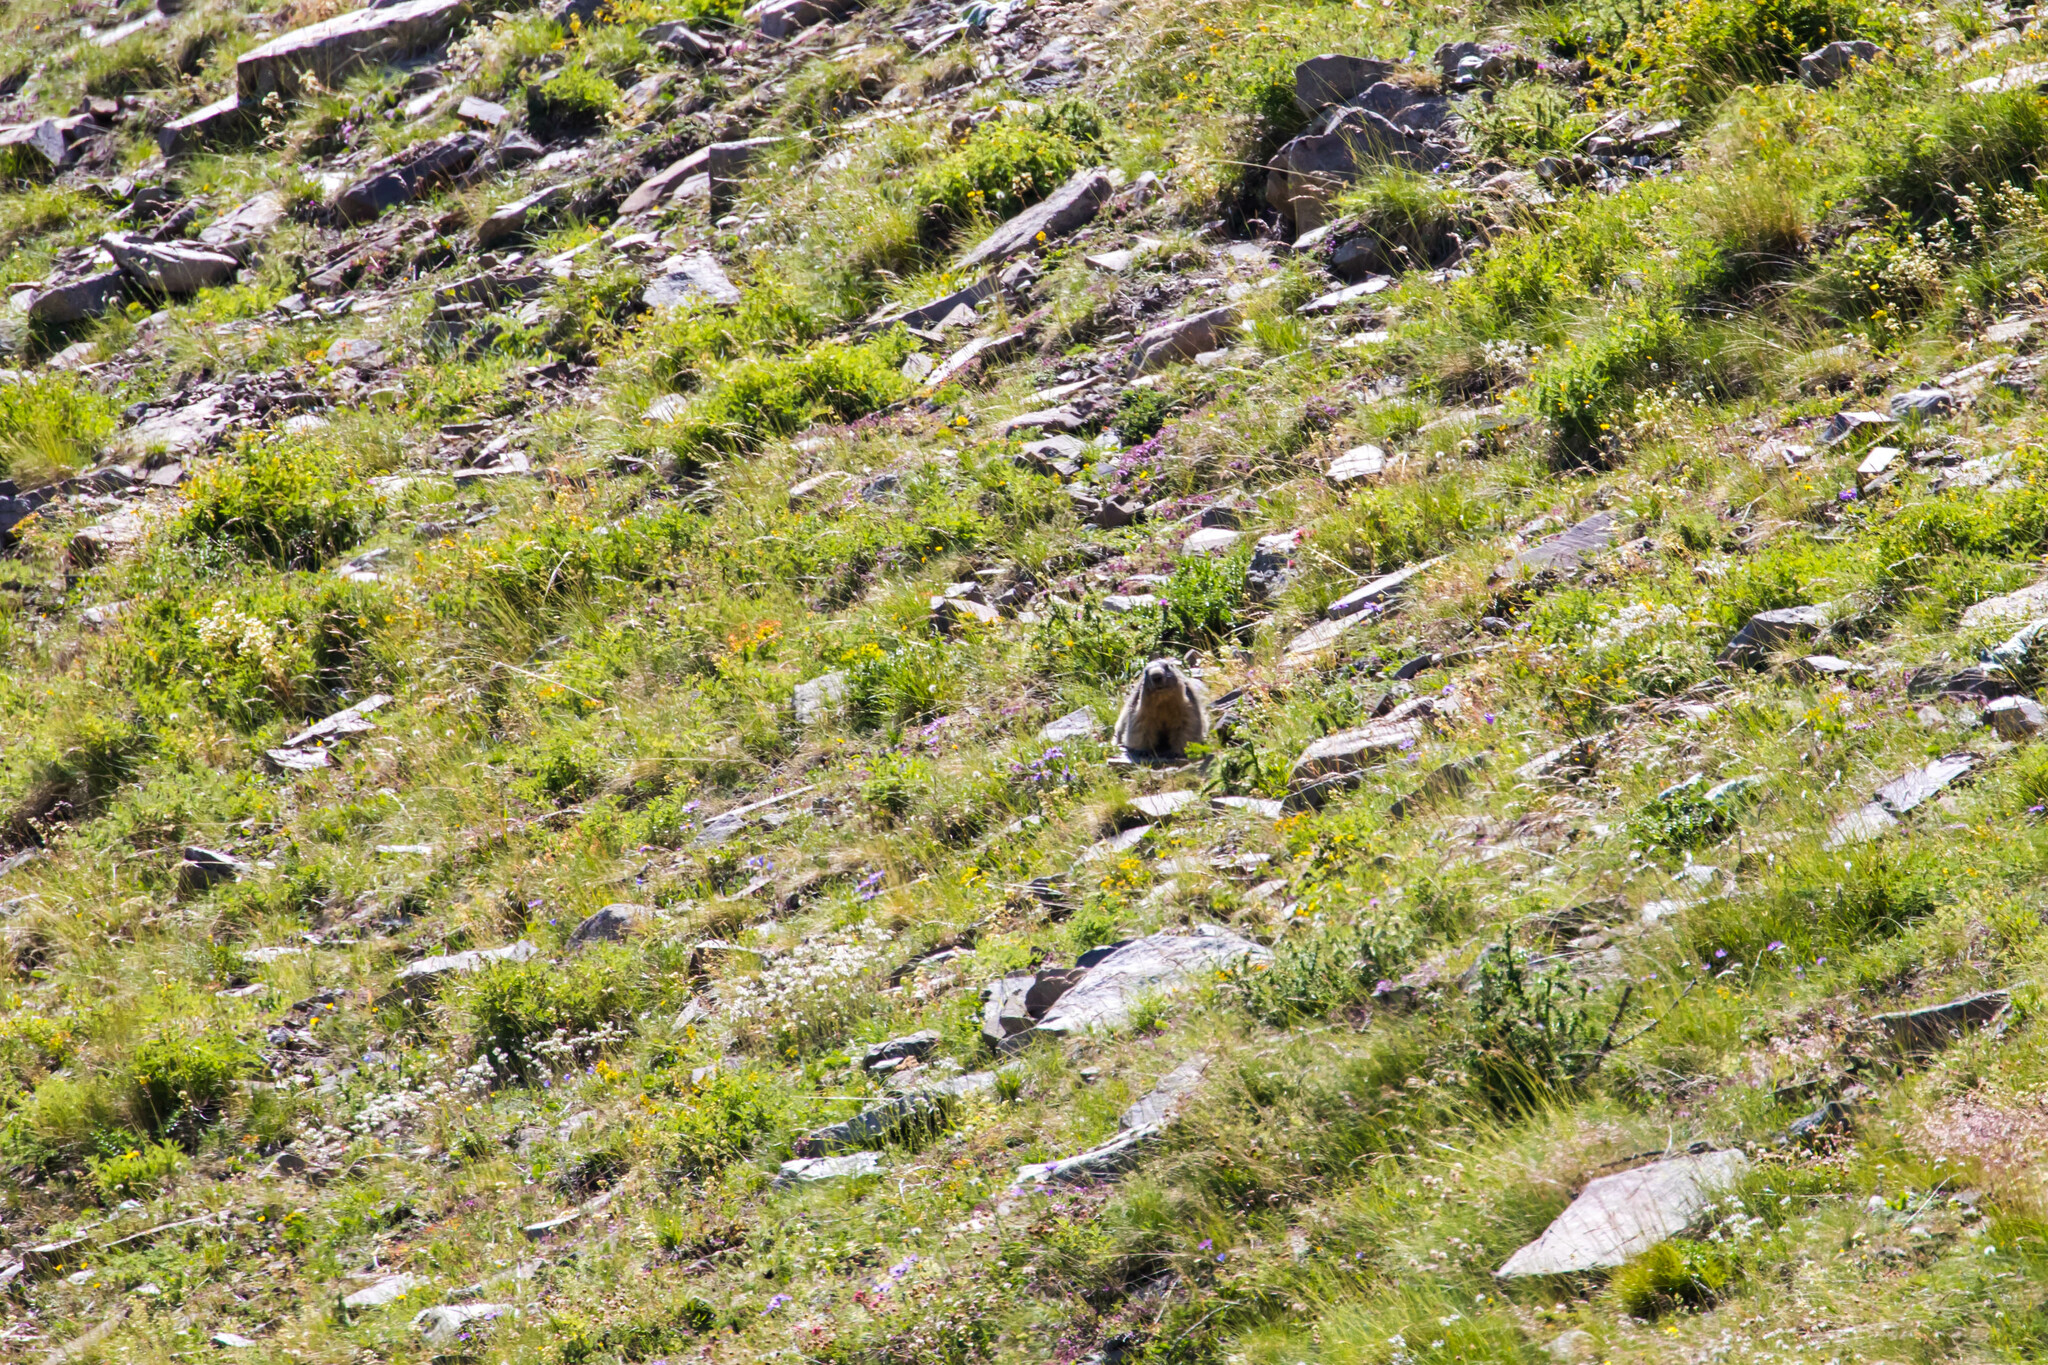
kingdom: Animalia
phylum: Chordata
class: Mammalia
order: Rodentia
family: Sciuridae
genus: Marmota
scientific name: Marmota marmota
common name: Alpine marmot
